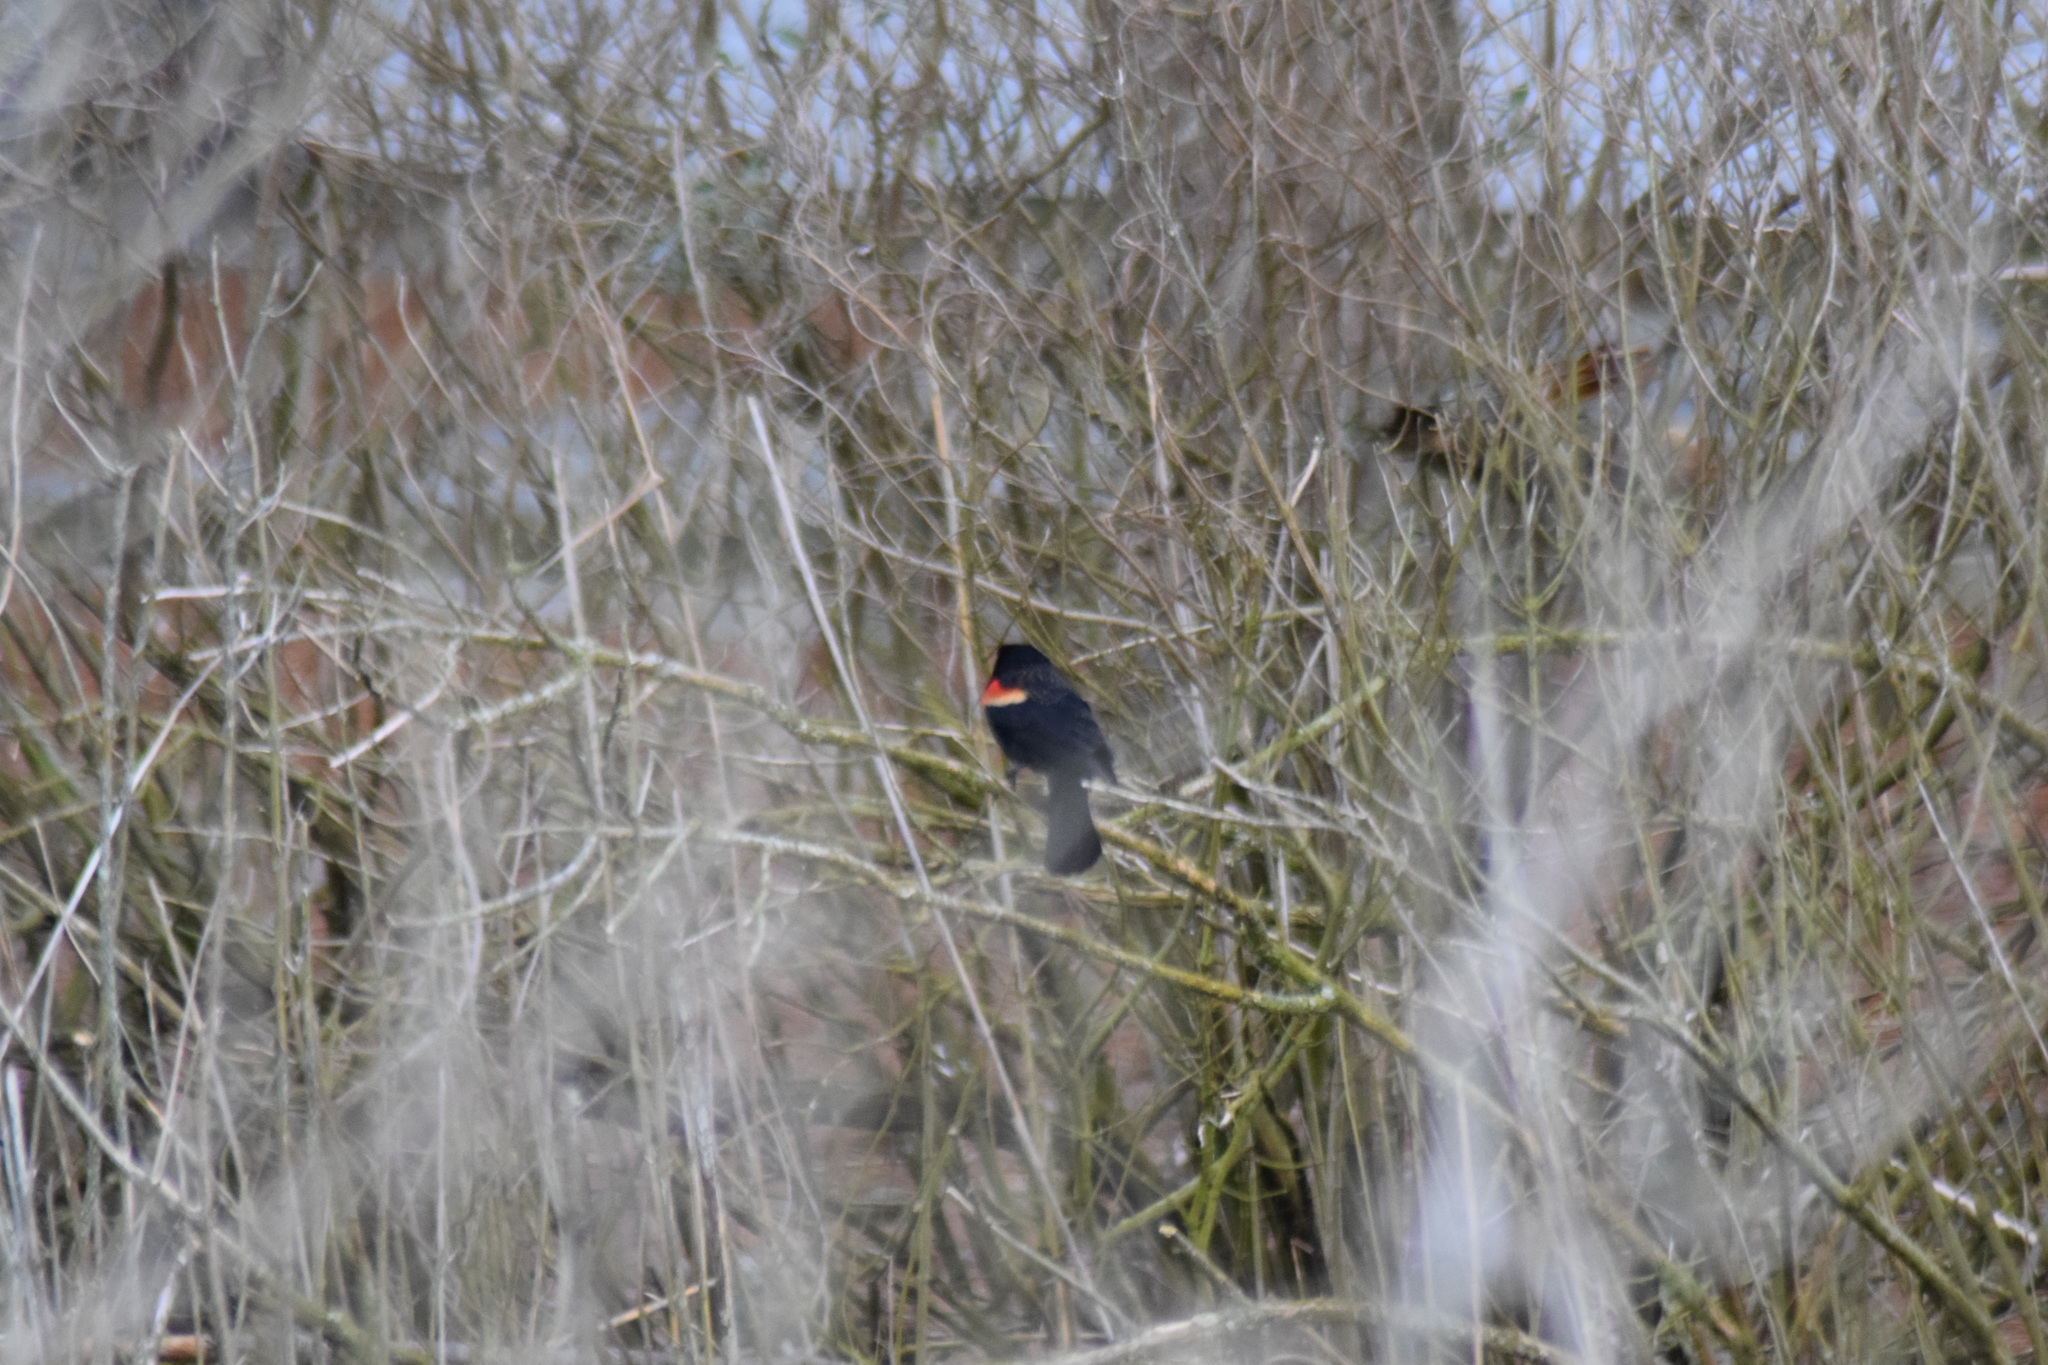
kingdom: Animalia
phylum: Chordata
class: Aves
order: Passeriformes
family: Icteridae
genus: Agelaius
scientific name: Agelaius phoeniceus
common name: Red-winged blackbird
